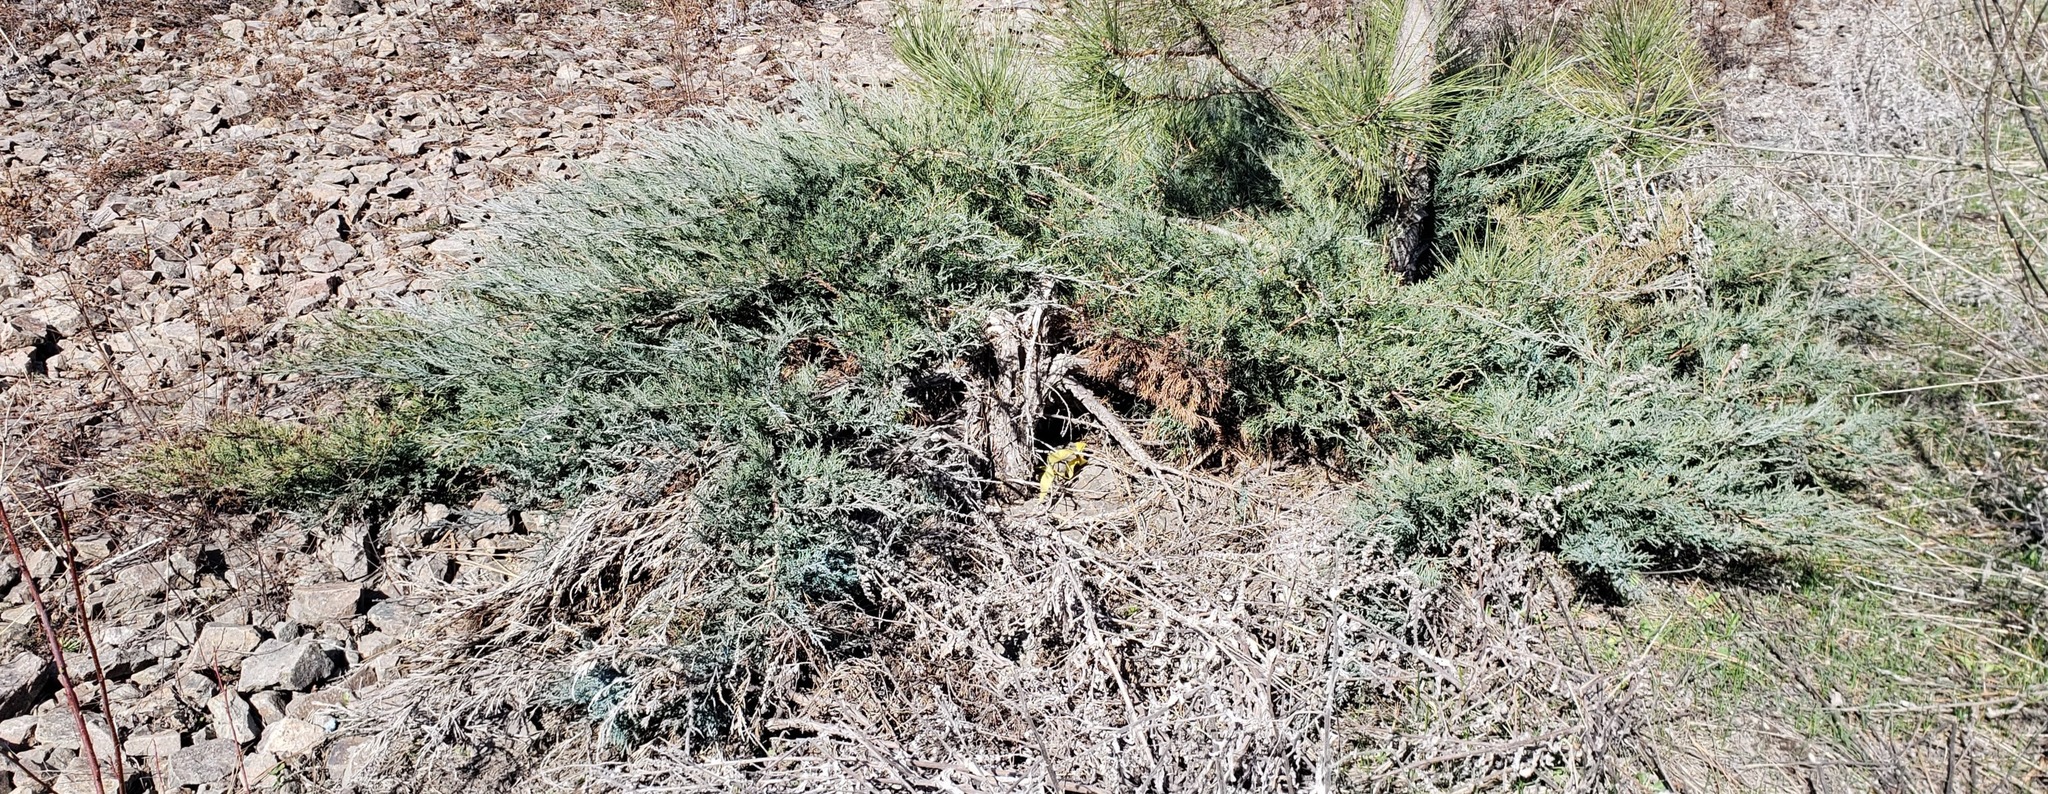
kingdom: Plantae
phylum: Tracheophyta
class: Pinopsida
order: Pinales
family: Cupressaceae
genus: Juniperus
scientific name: Juniperus horizontalis
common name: Creeping juniper
